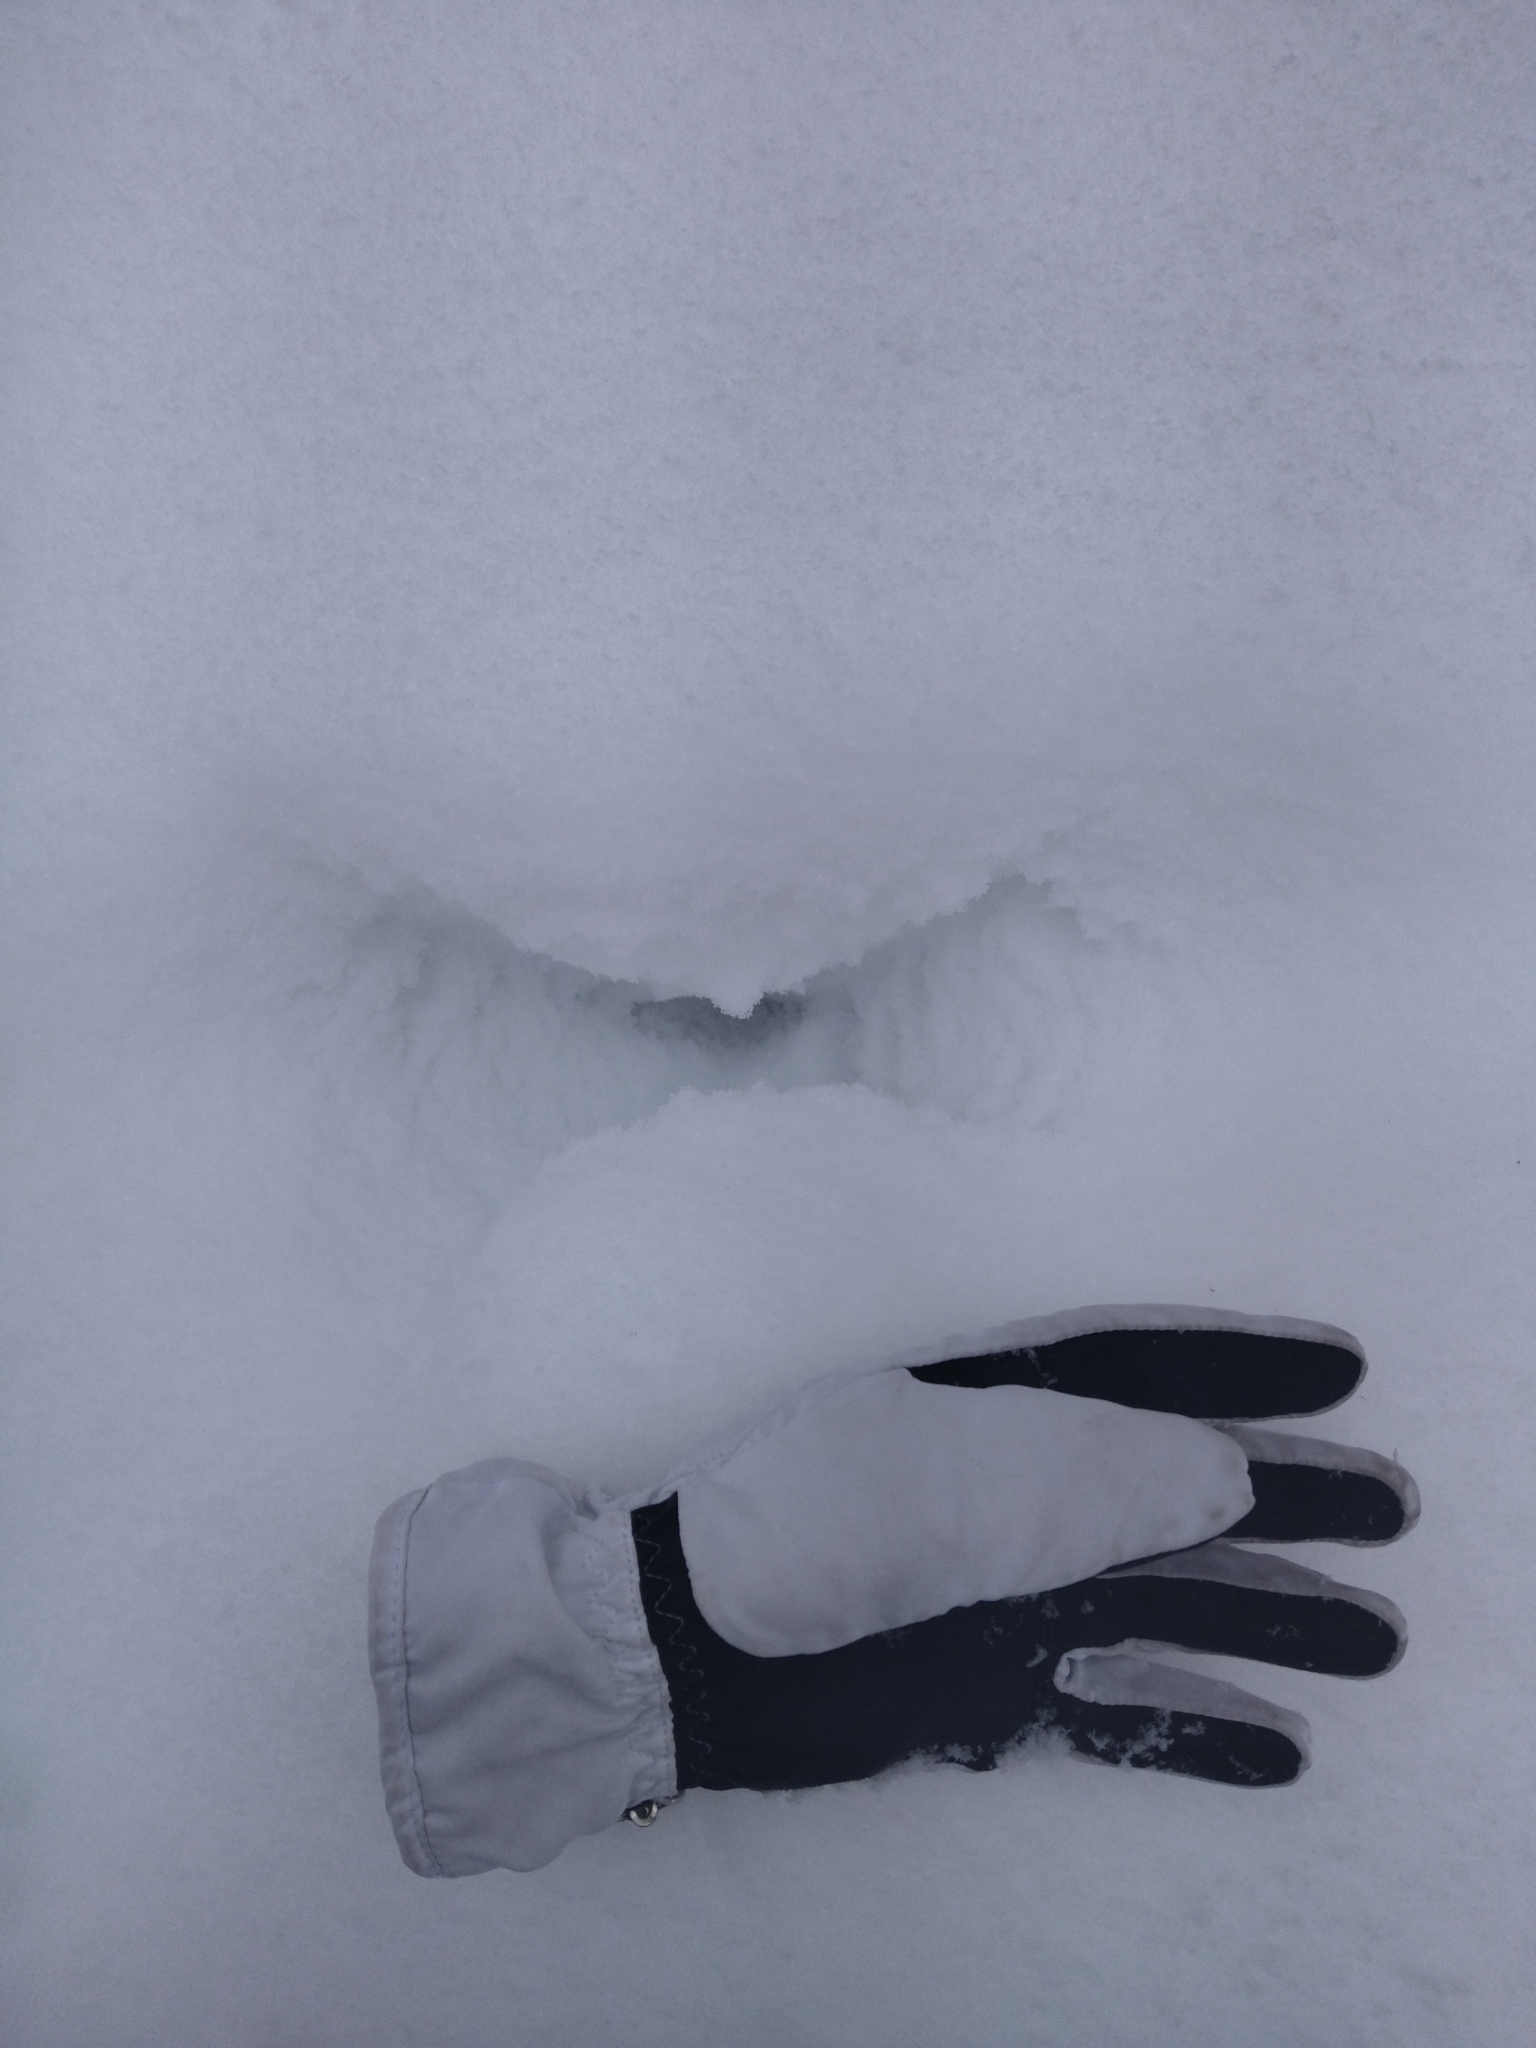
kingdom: Animalia
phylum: Chordata
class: Mammalia
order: Artiodactyla
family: Cervidae
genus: Alces
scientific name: Alces alces
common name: Moose
